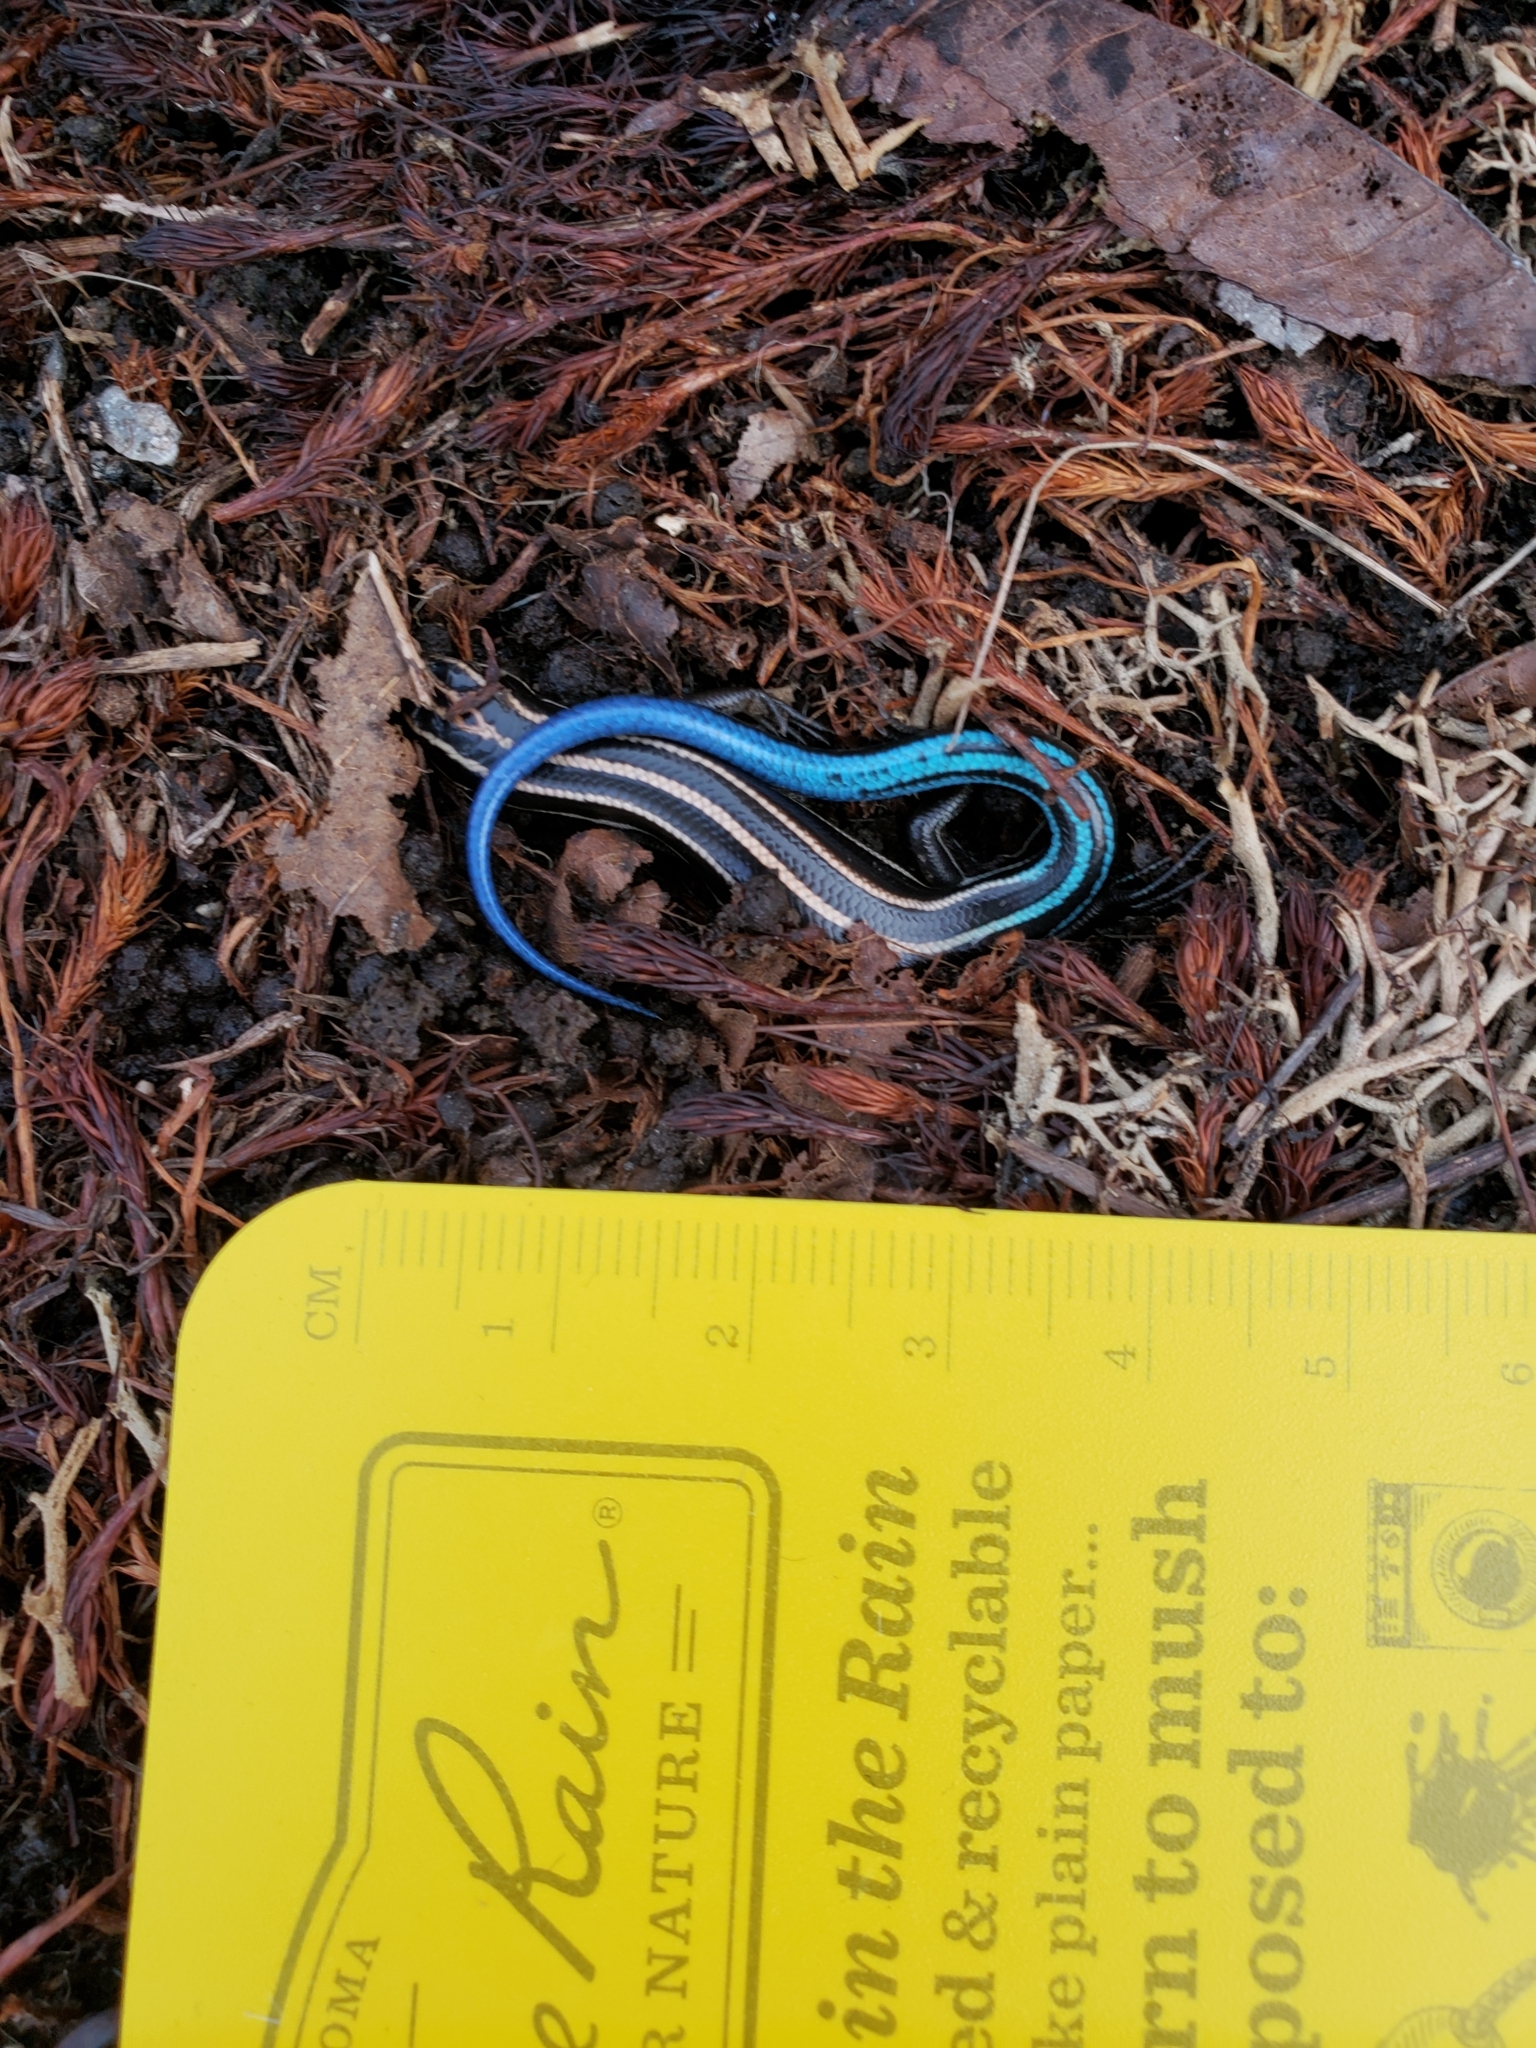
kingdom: Animalia
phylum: Chordata
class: Squamata
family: Scincidae
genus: Plestiodon
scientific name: Plestiodon fasciatus
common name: Five-lined skink
